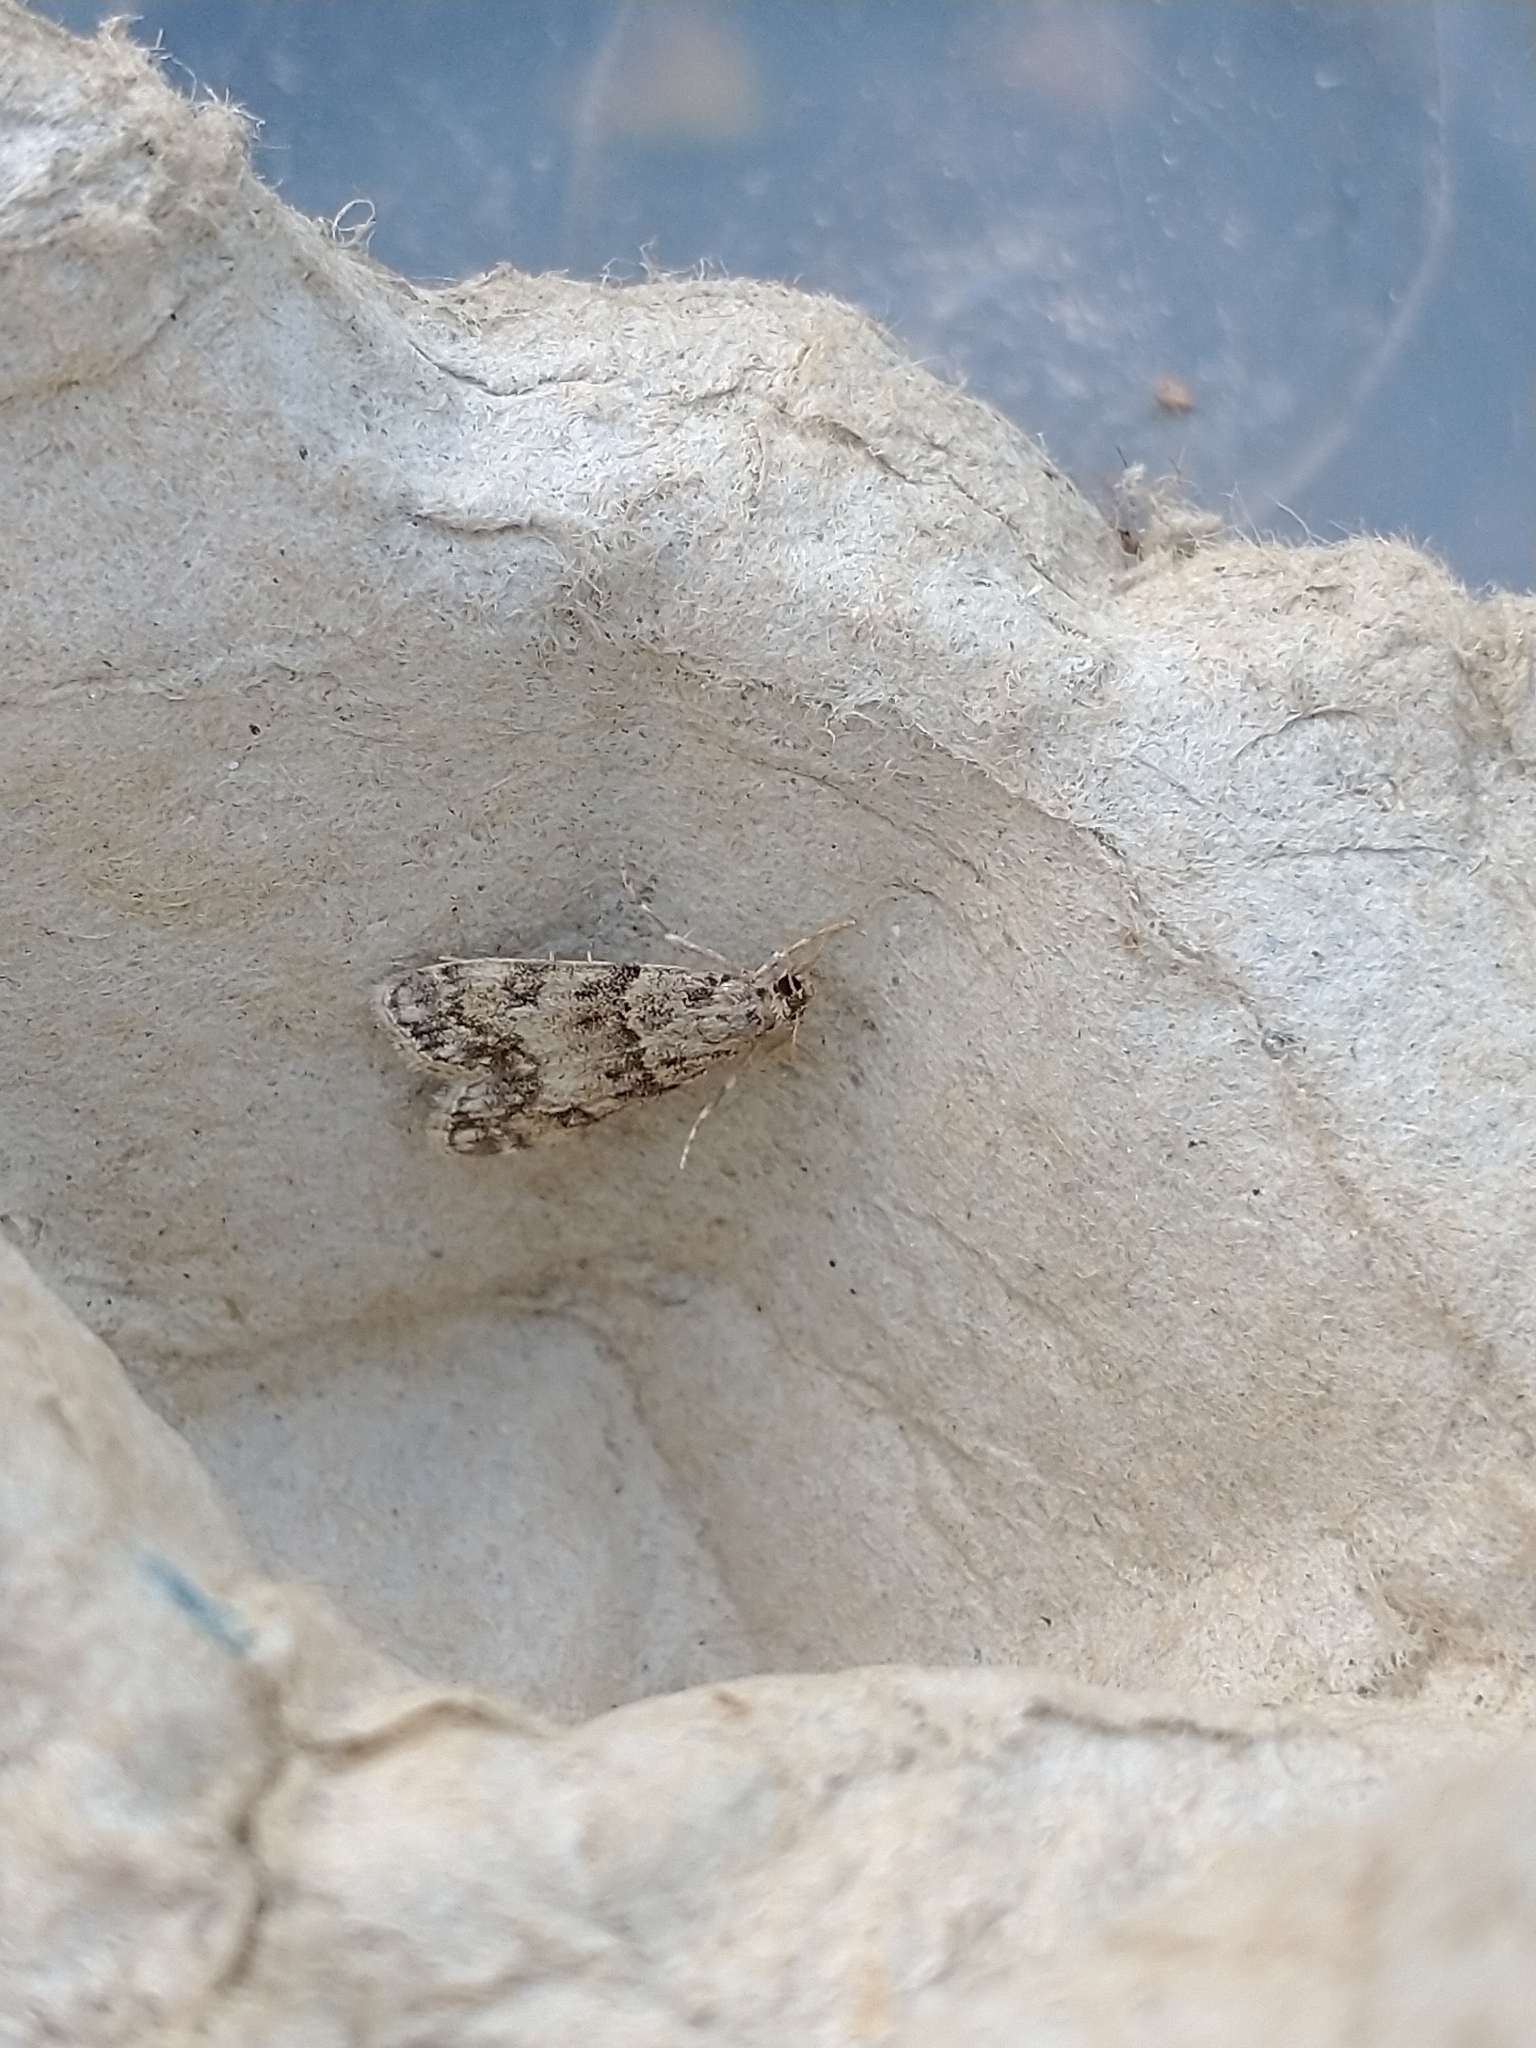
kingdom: Animalia
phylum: Arthropoda
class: Insecta
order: Lepidoptera
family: Crambidae
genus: Eudonia
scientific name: Eudonia lacustrata
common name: Little grey
